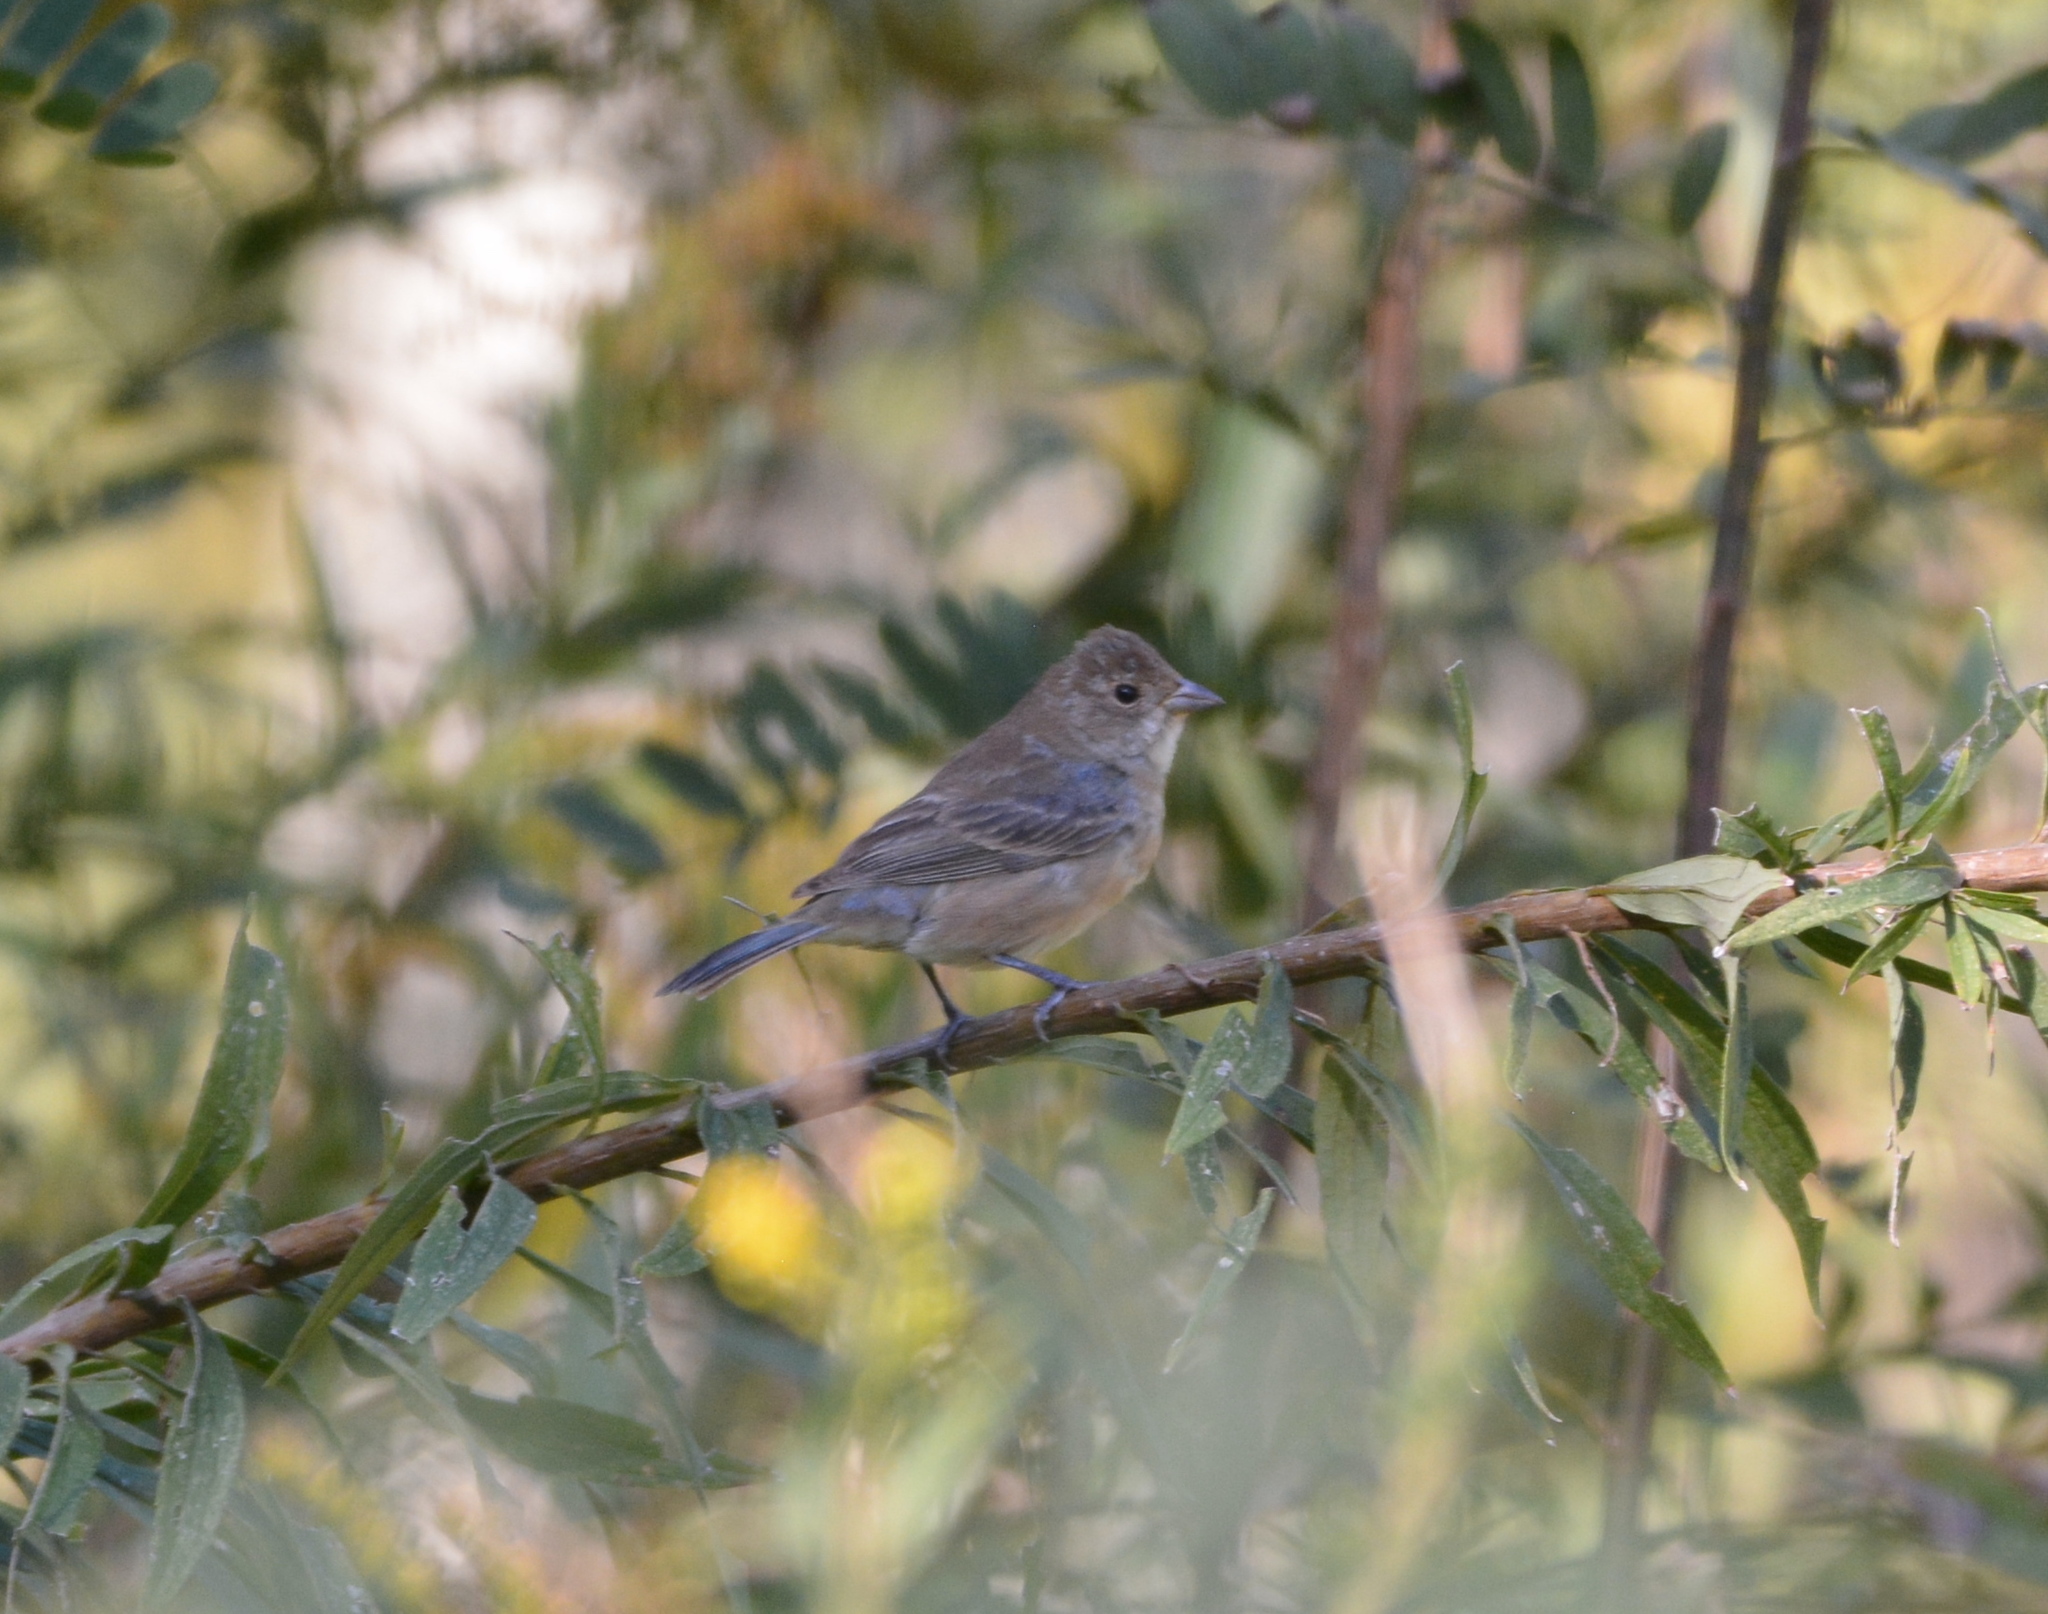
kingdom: Animalia
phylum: Chordata
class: Aves
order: Passeriformes
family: Cardinalidae
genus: Passerina
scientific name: Passerina cyanea
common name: Indigo bunting
